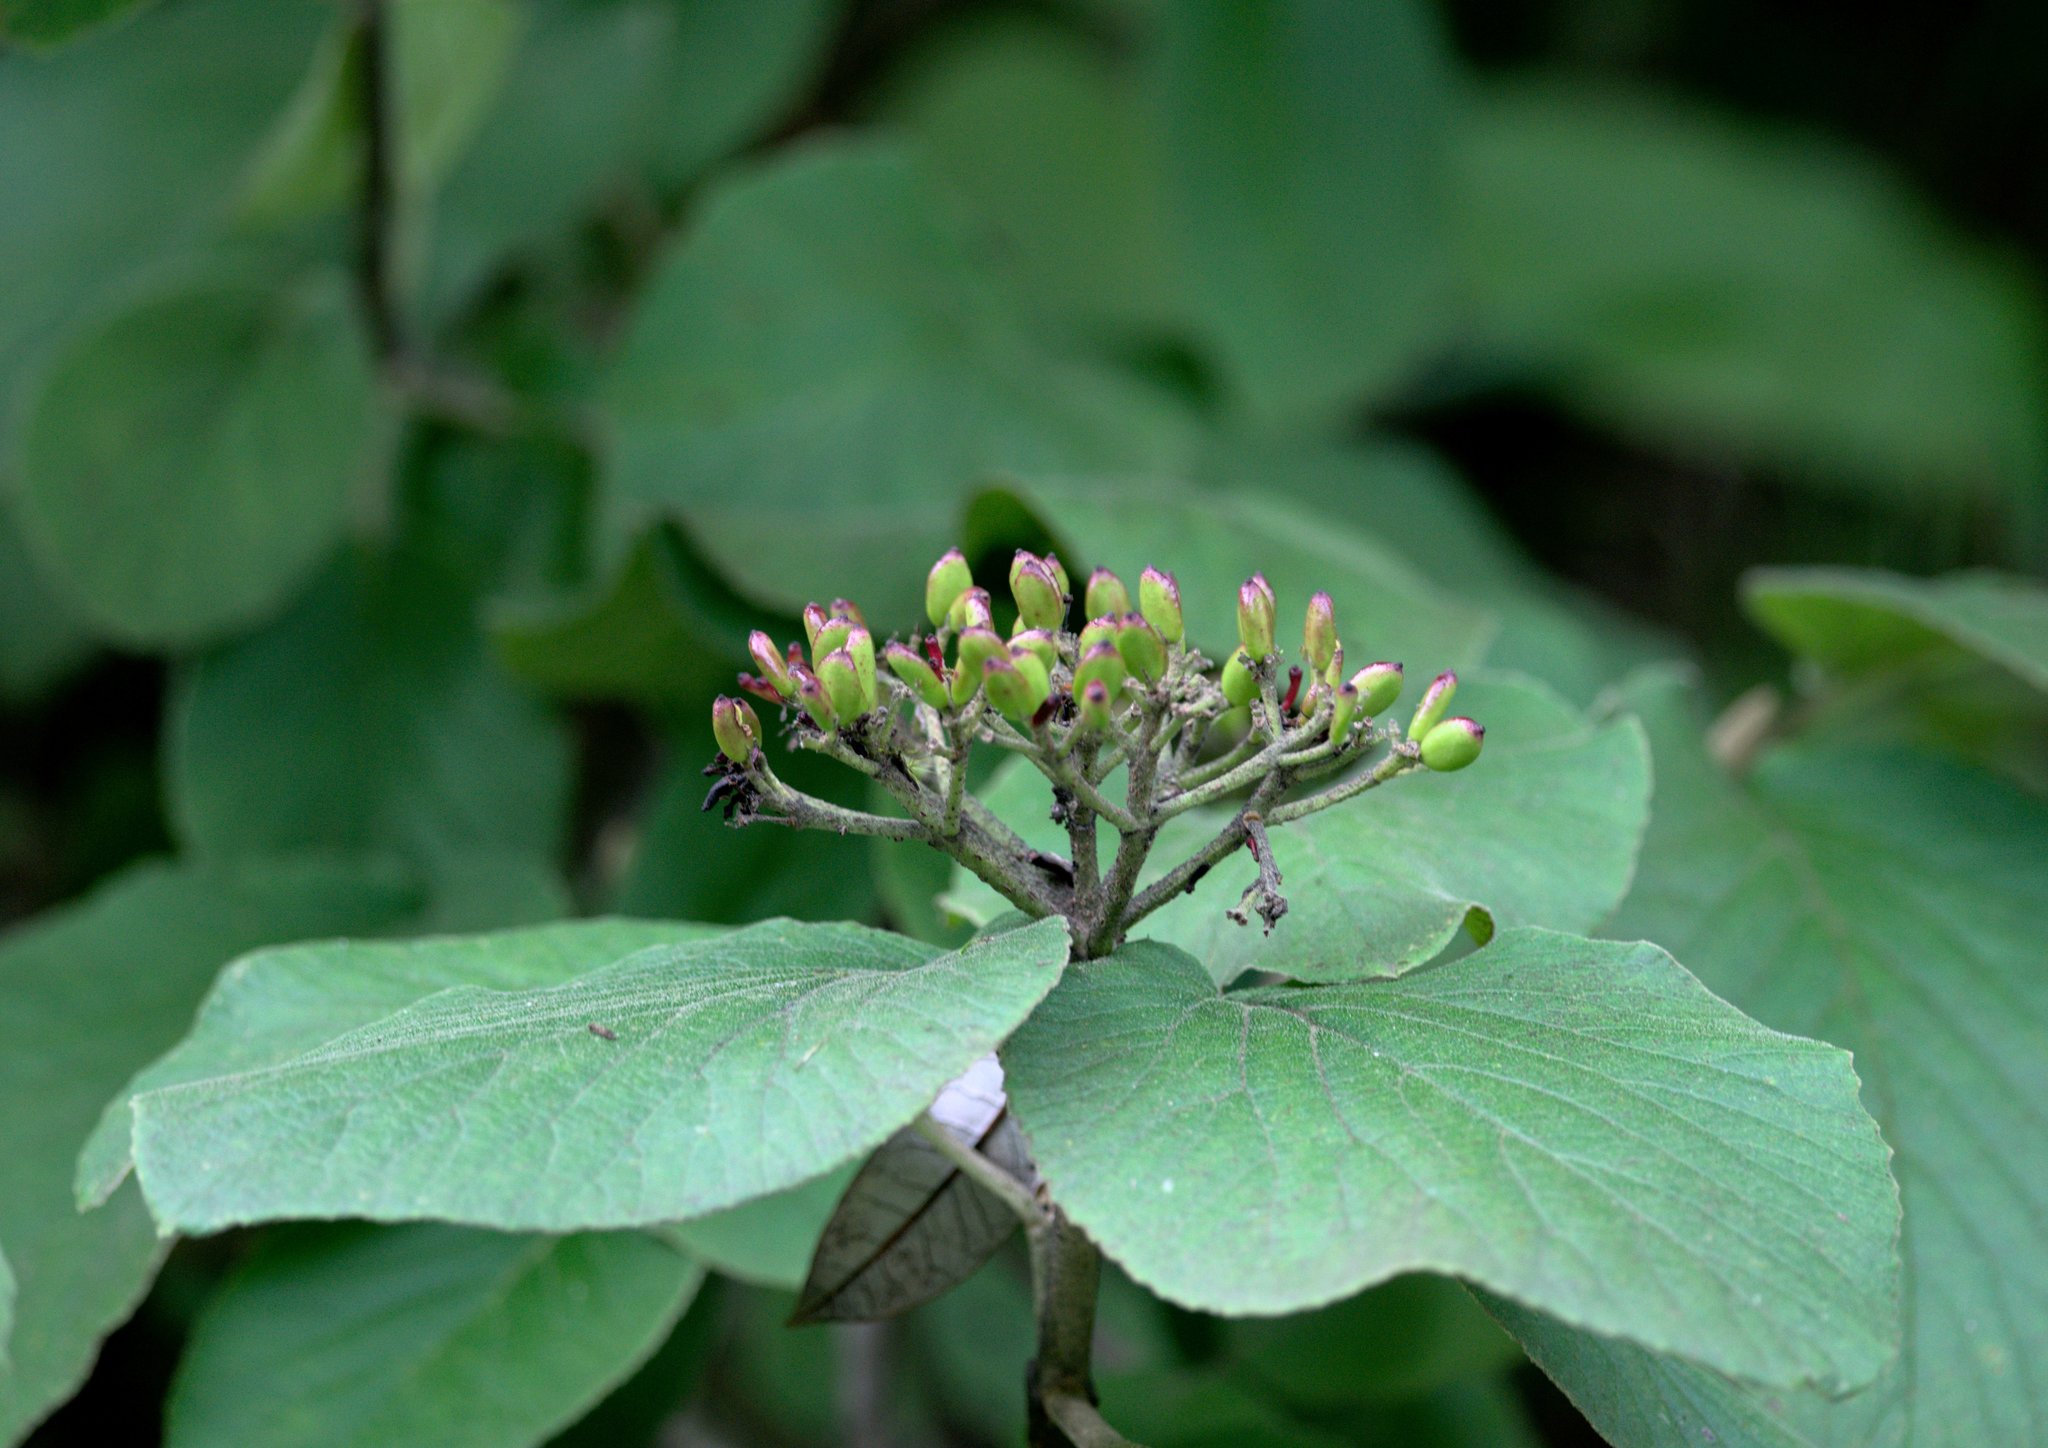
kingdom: Plantae
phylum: Tracheophyta
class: Magnoliopsida
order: Dipsacales
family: Viburnaceae
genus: Viburnum
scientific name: Viburnum cotinifolium
